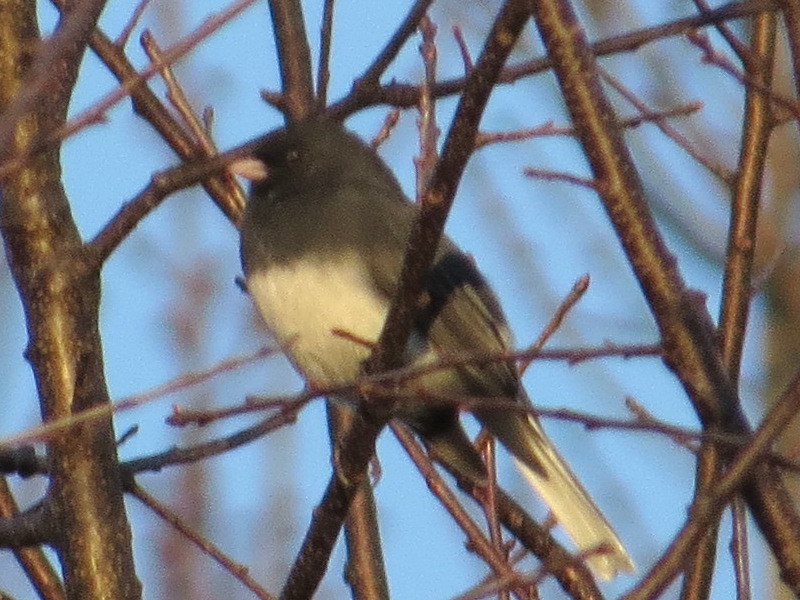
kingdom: Animalia
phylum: Chordata
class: Aves
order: Passeriformes
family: Passerellidae
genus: Junco
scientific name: Junco hyemalis
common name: Dark-eyed junco
